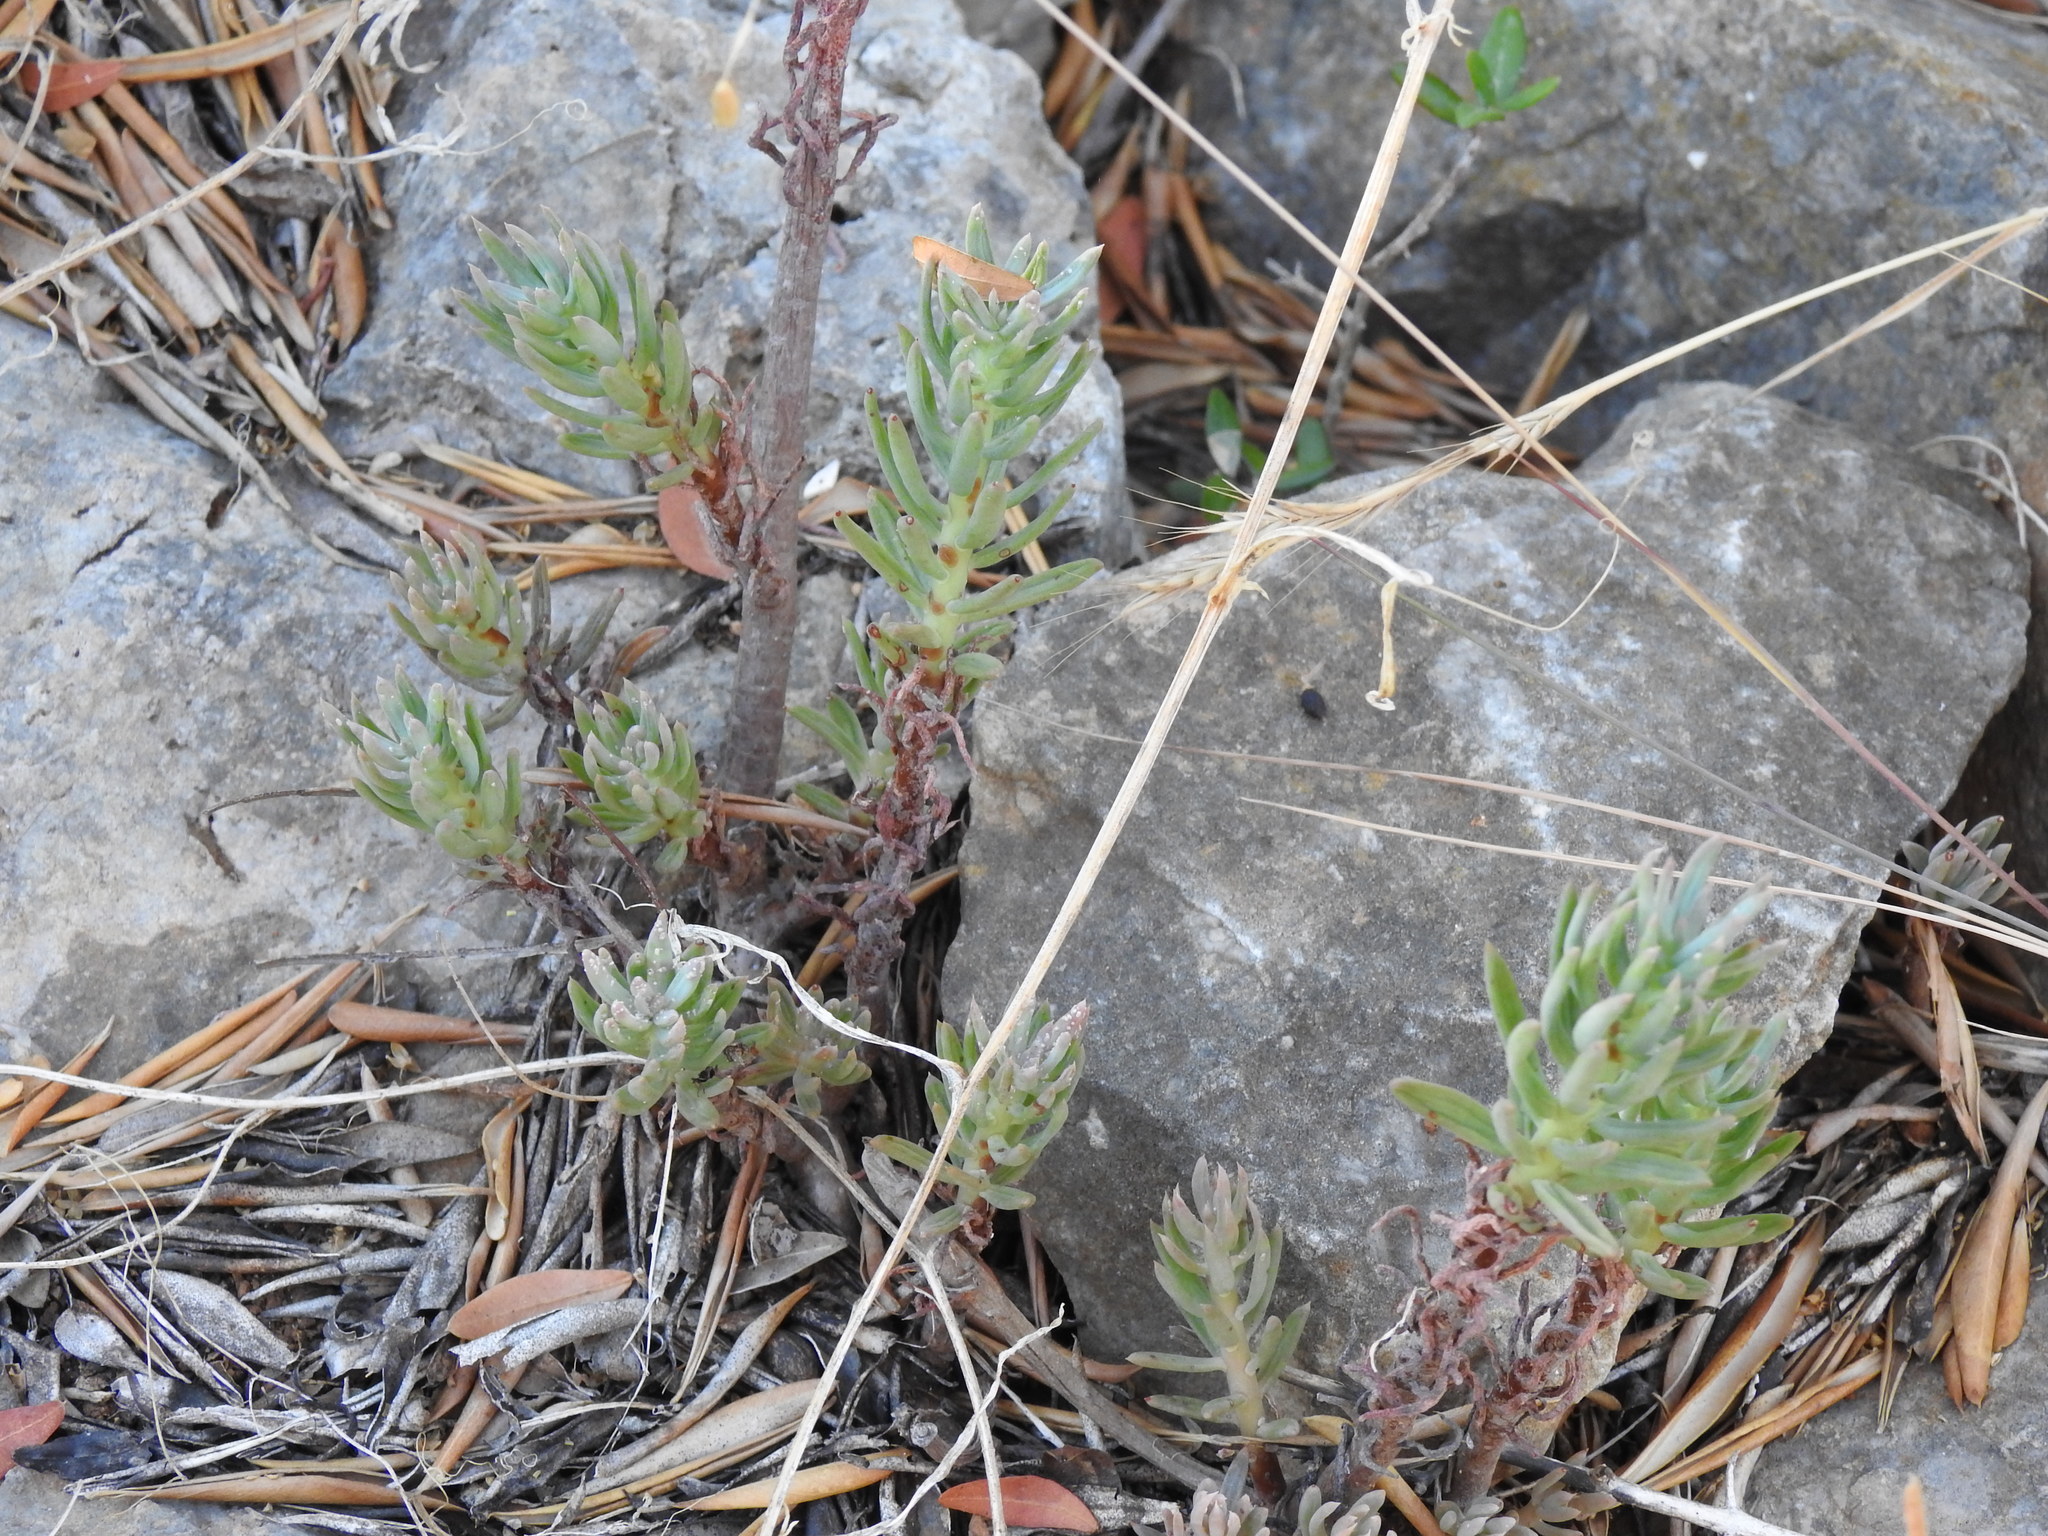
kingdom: Plantae
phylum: Tracheophyta
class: Magnoliopsida
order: Saxifragales
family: Crassulaceae
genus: Petrosedum
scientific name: Petrosedum sediforme
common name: Pale stonecrop
